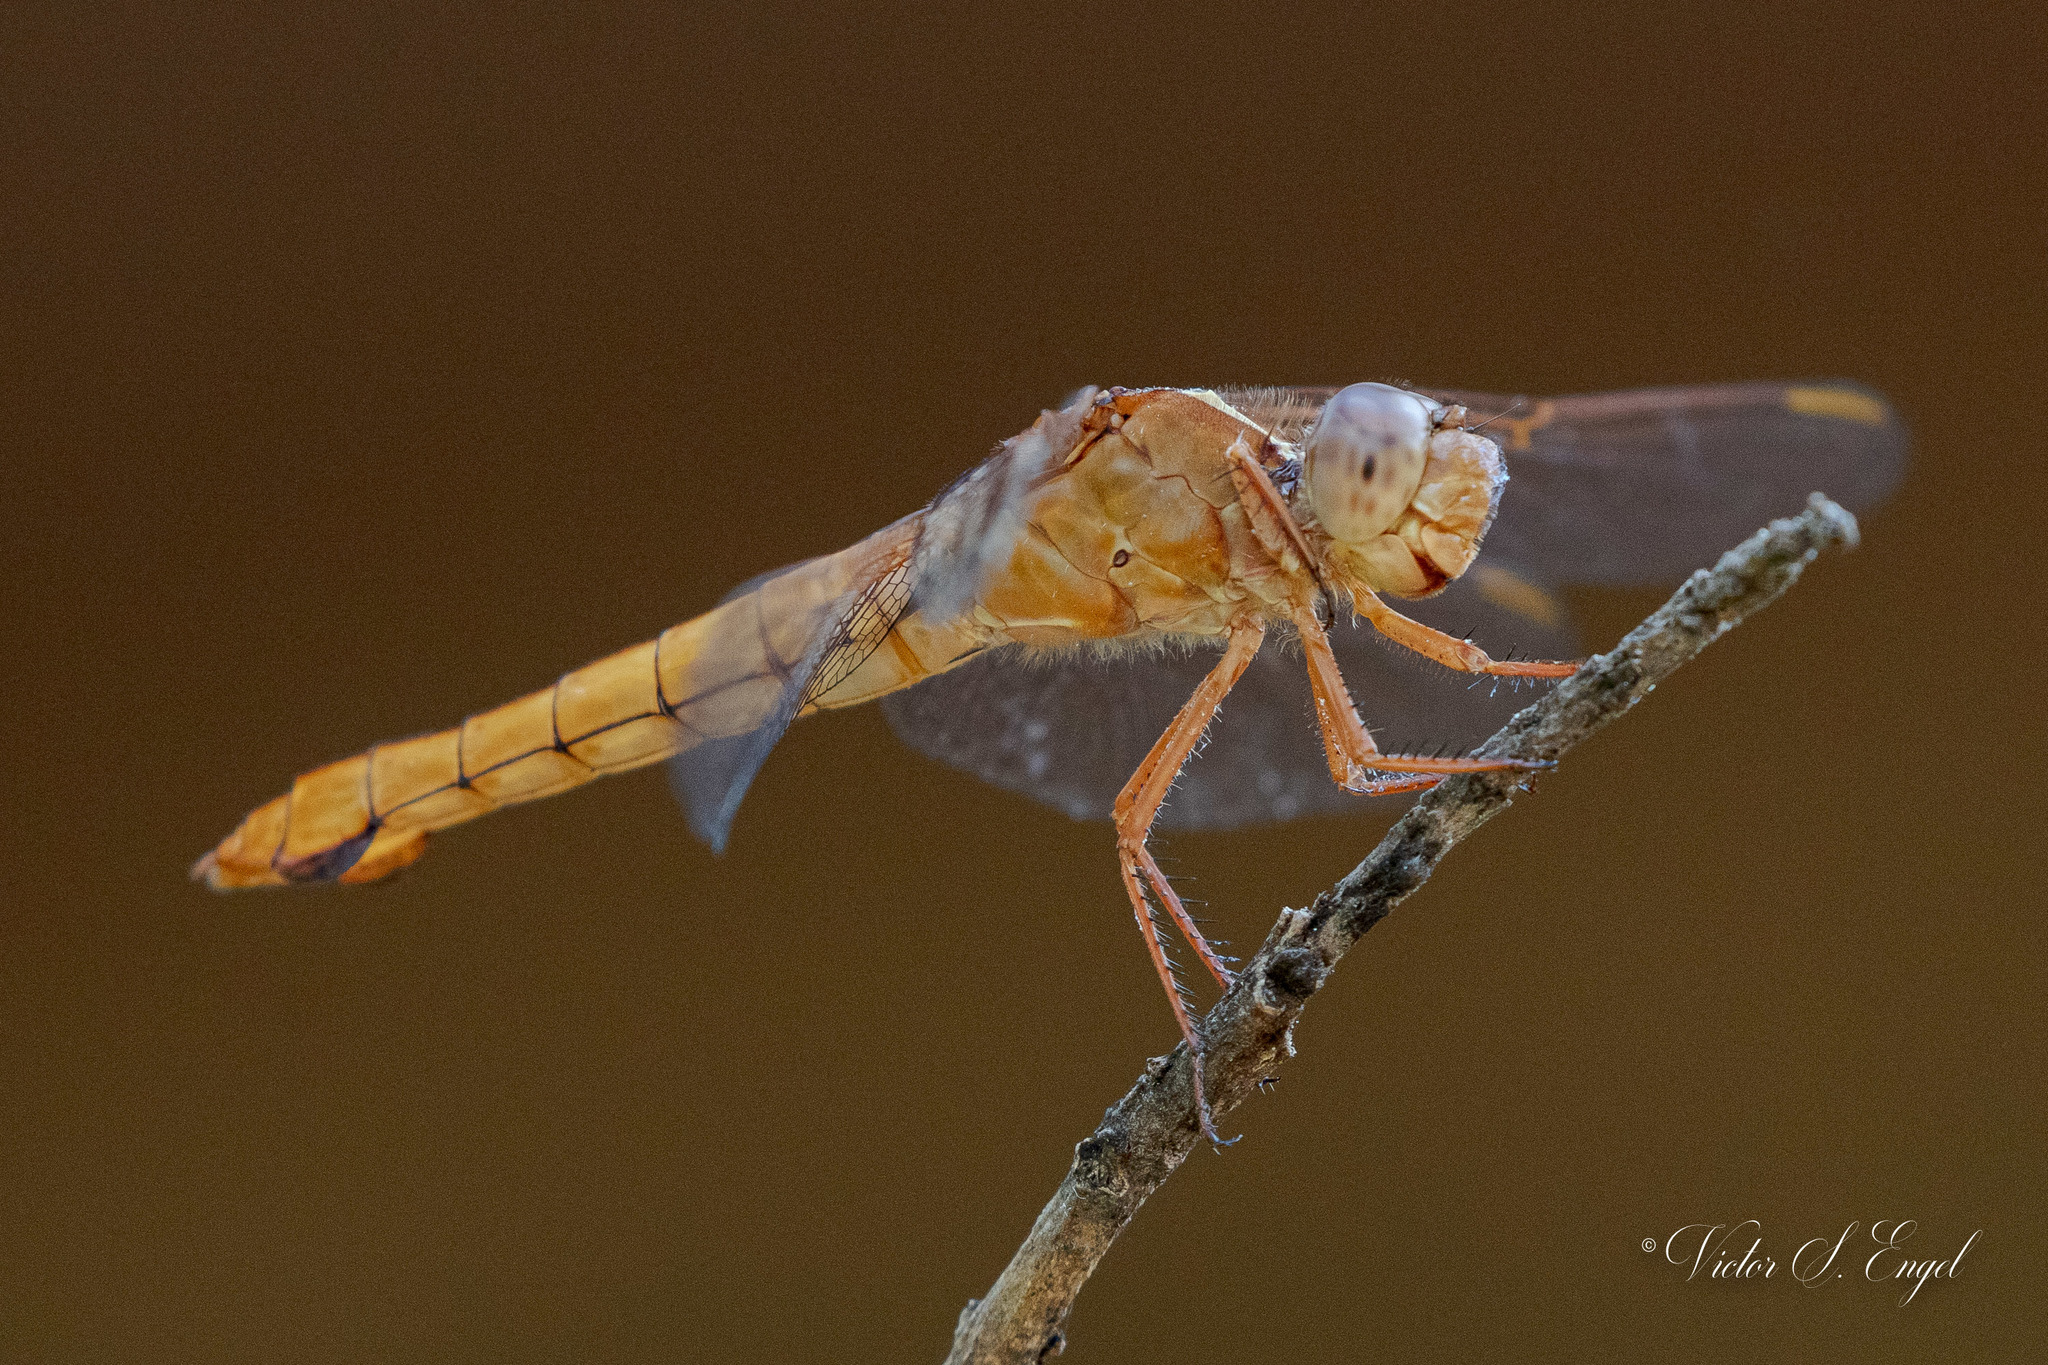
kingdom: Animalia
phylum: Arthropoda
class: Insecta
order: Odonata
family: Libellulidae
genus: Libellula
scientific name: Libellula croceipennis
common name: Neon skimmer
